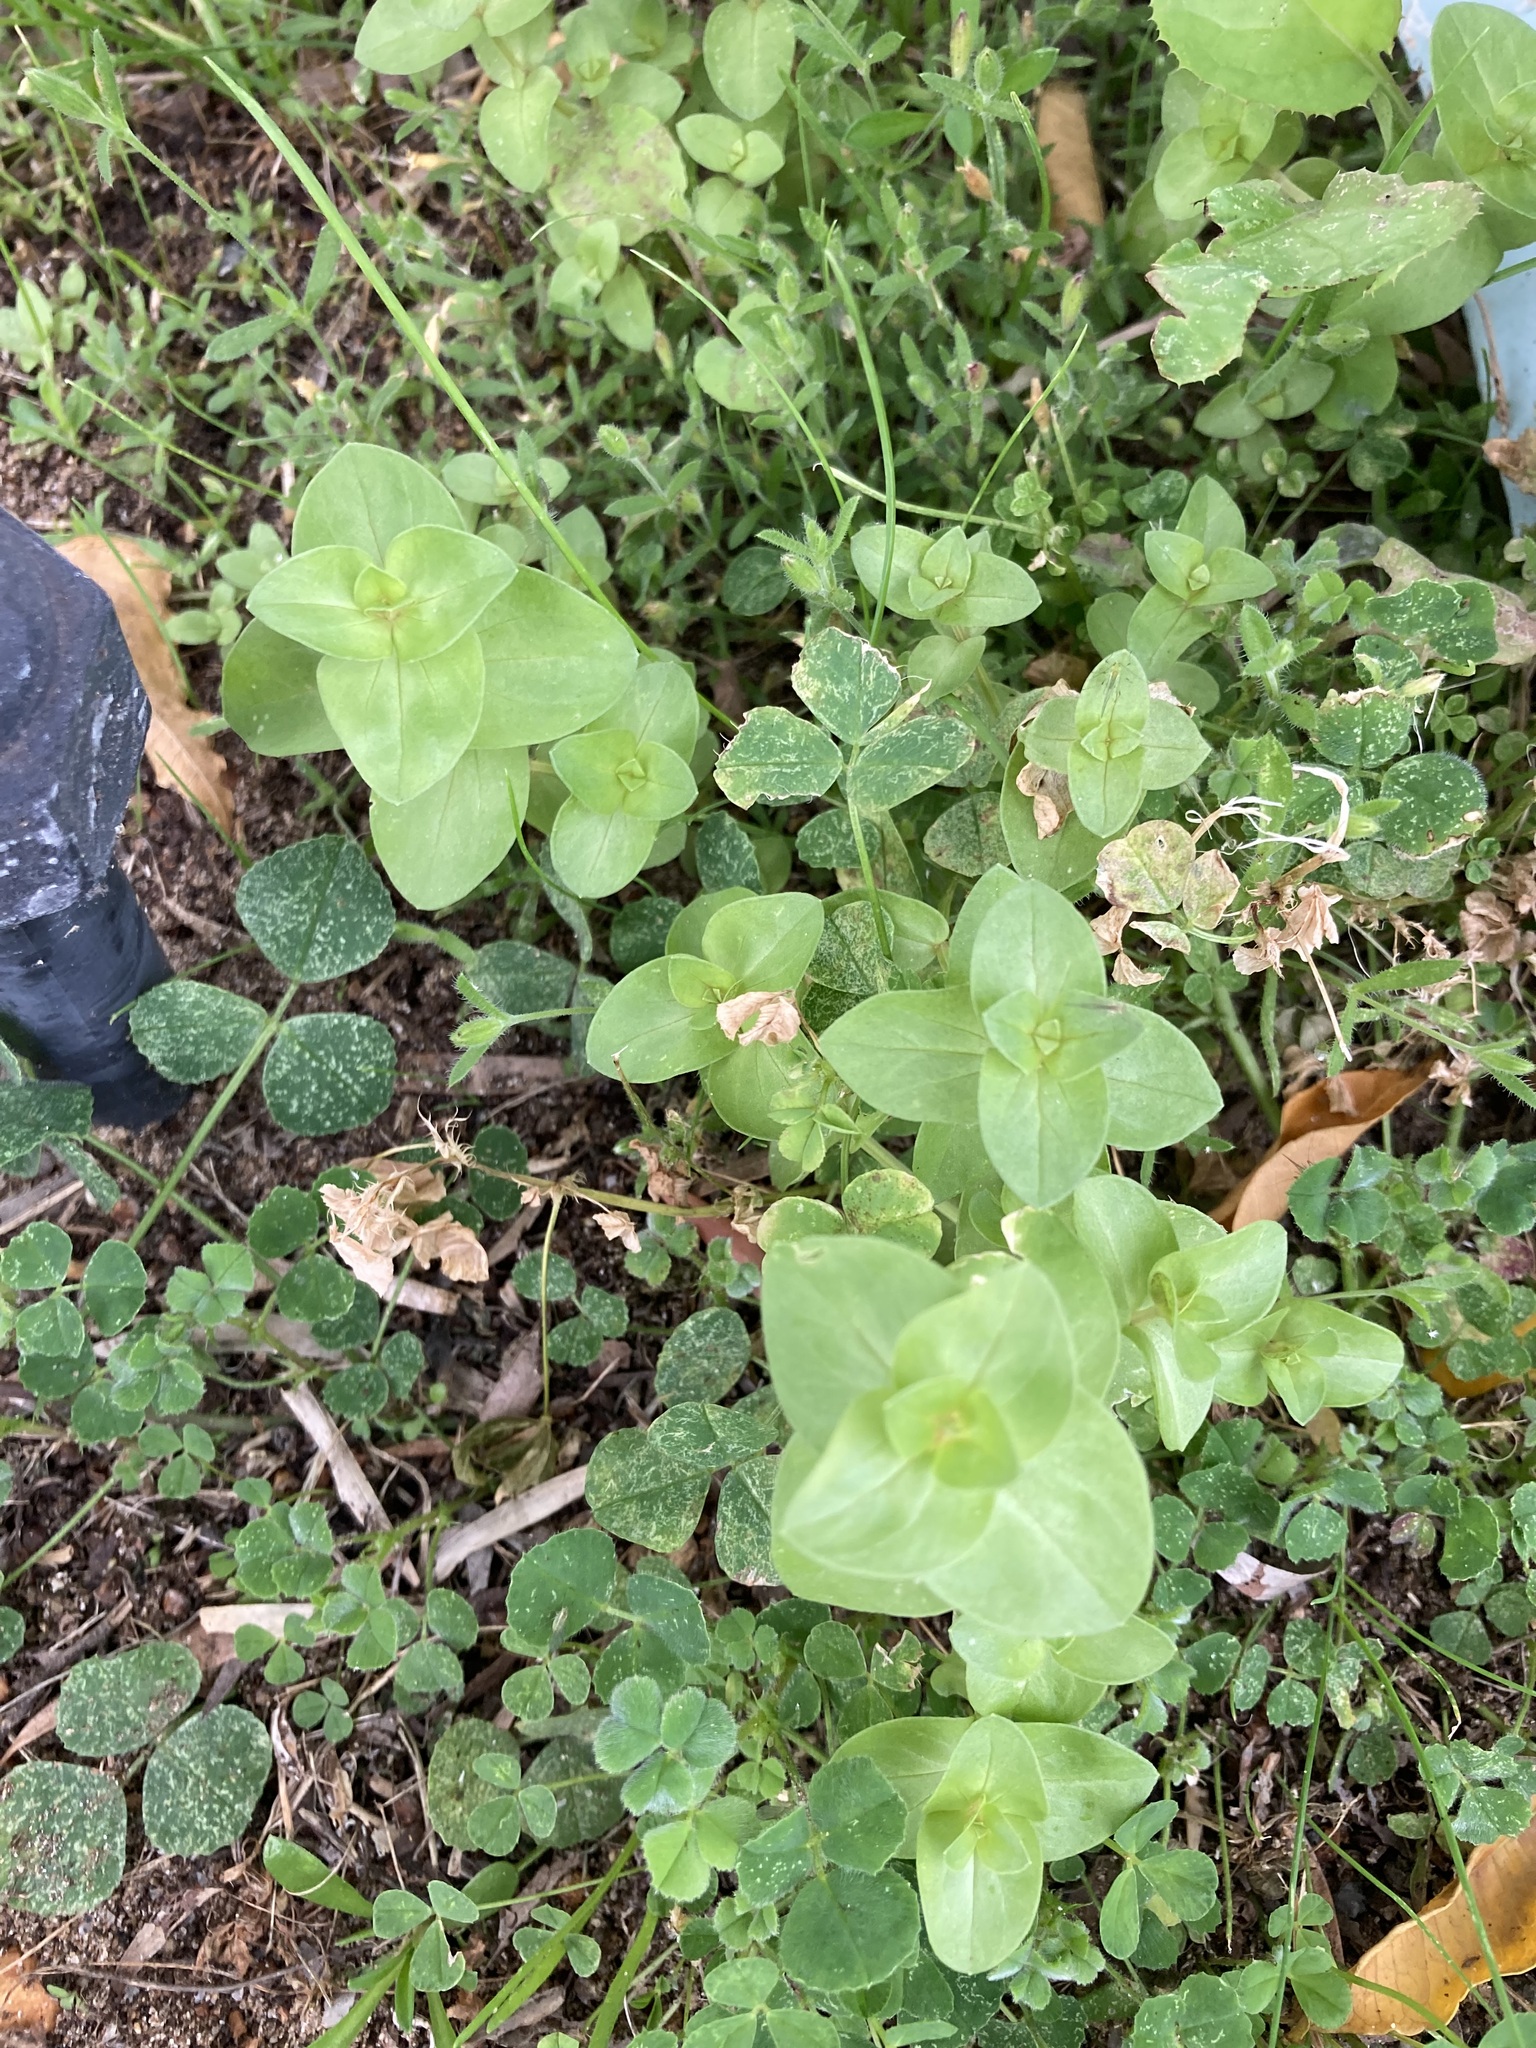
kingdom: Plantae
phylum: Tracheophyta
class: Magnoliopsida
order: Ericales
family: Primulaceae
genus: Lysimachia
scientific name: Lysimachia arvensis
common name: Scarlet pimpernel
